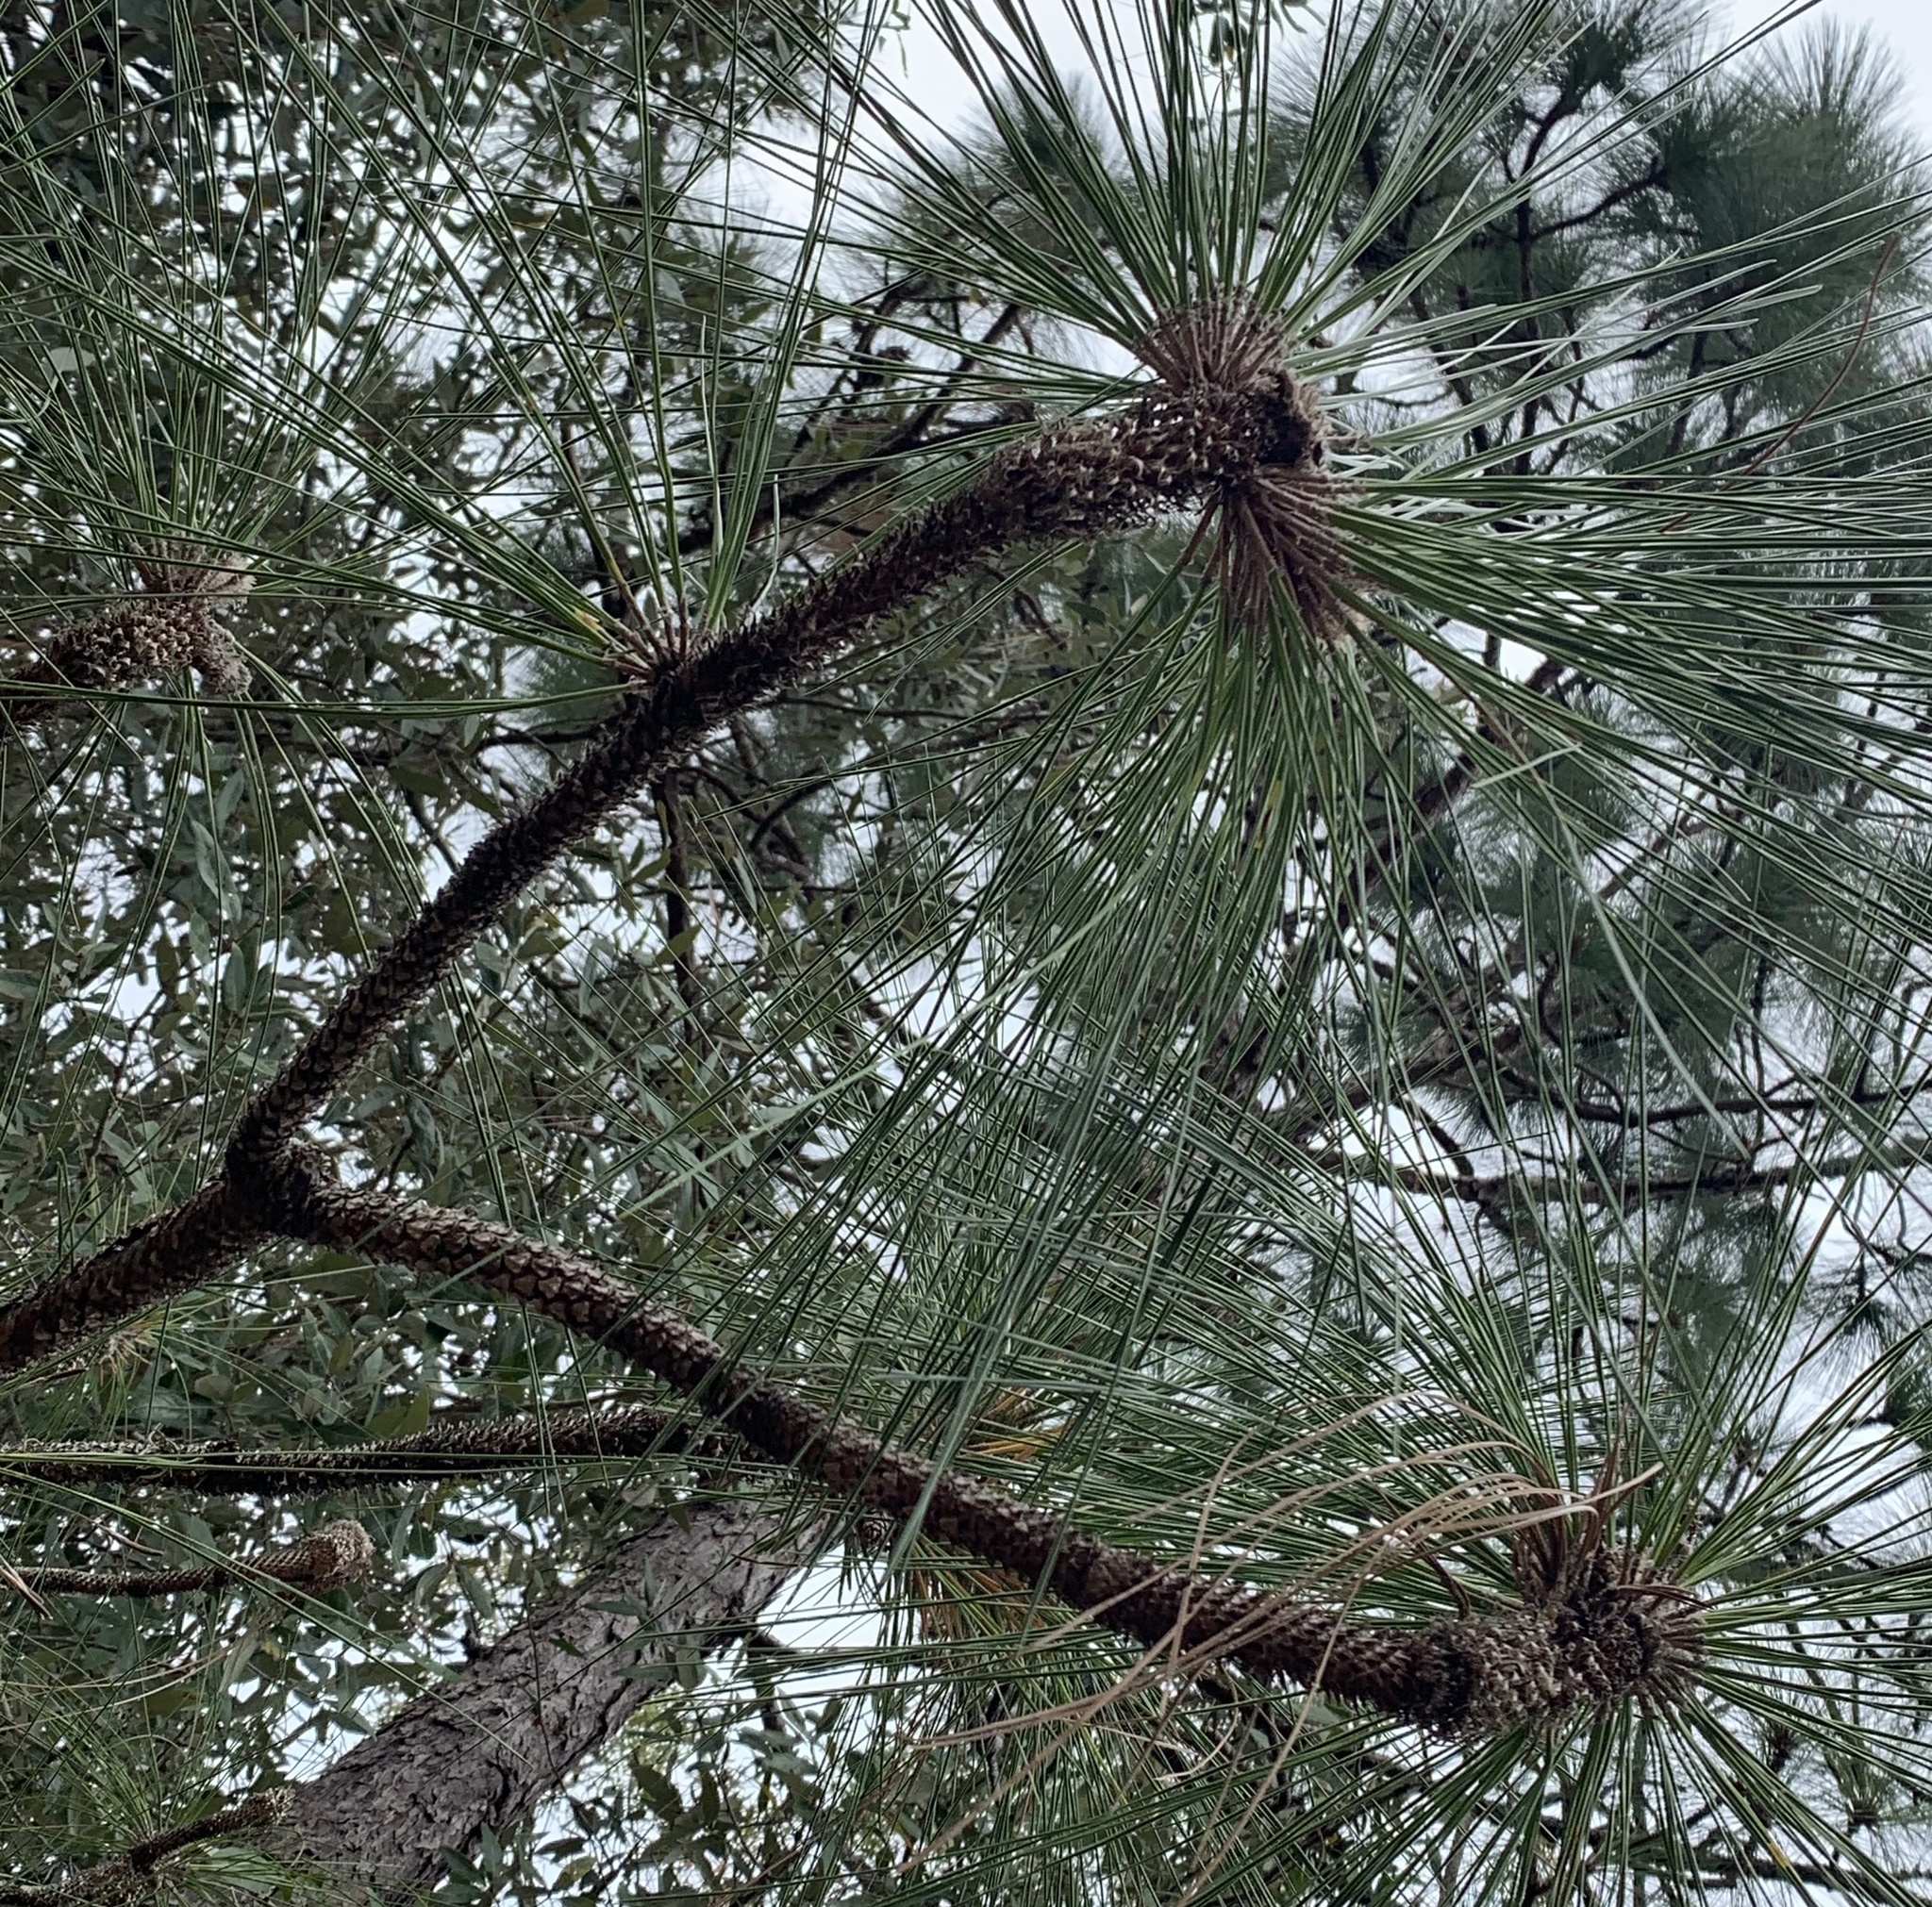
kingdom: Plantae
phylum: Tracheophyta
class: Pinopsida
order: Pinales
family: Pinaceae
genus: Pinus
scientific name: Pinus palustris
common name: Longleaf pine
